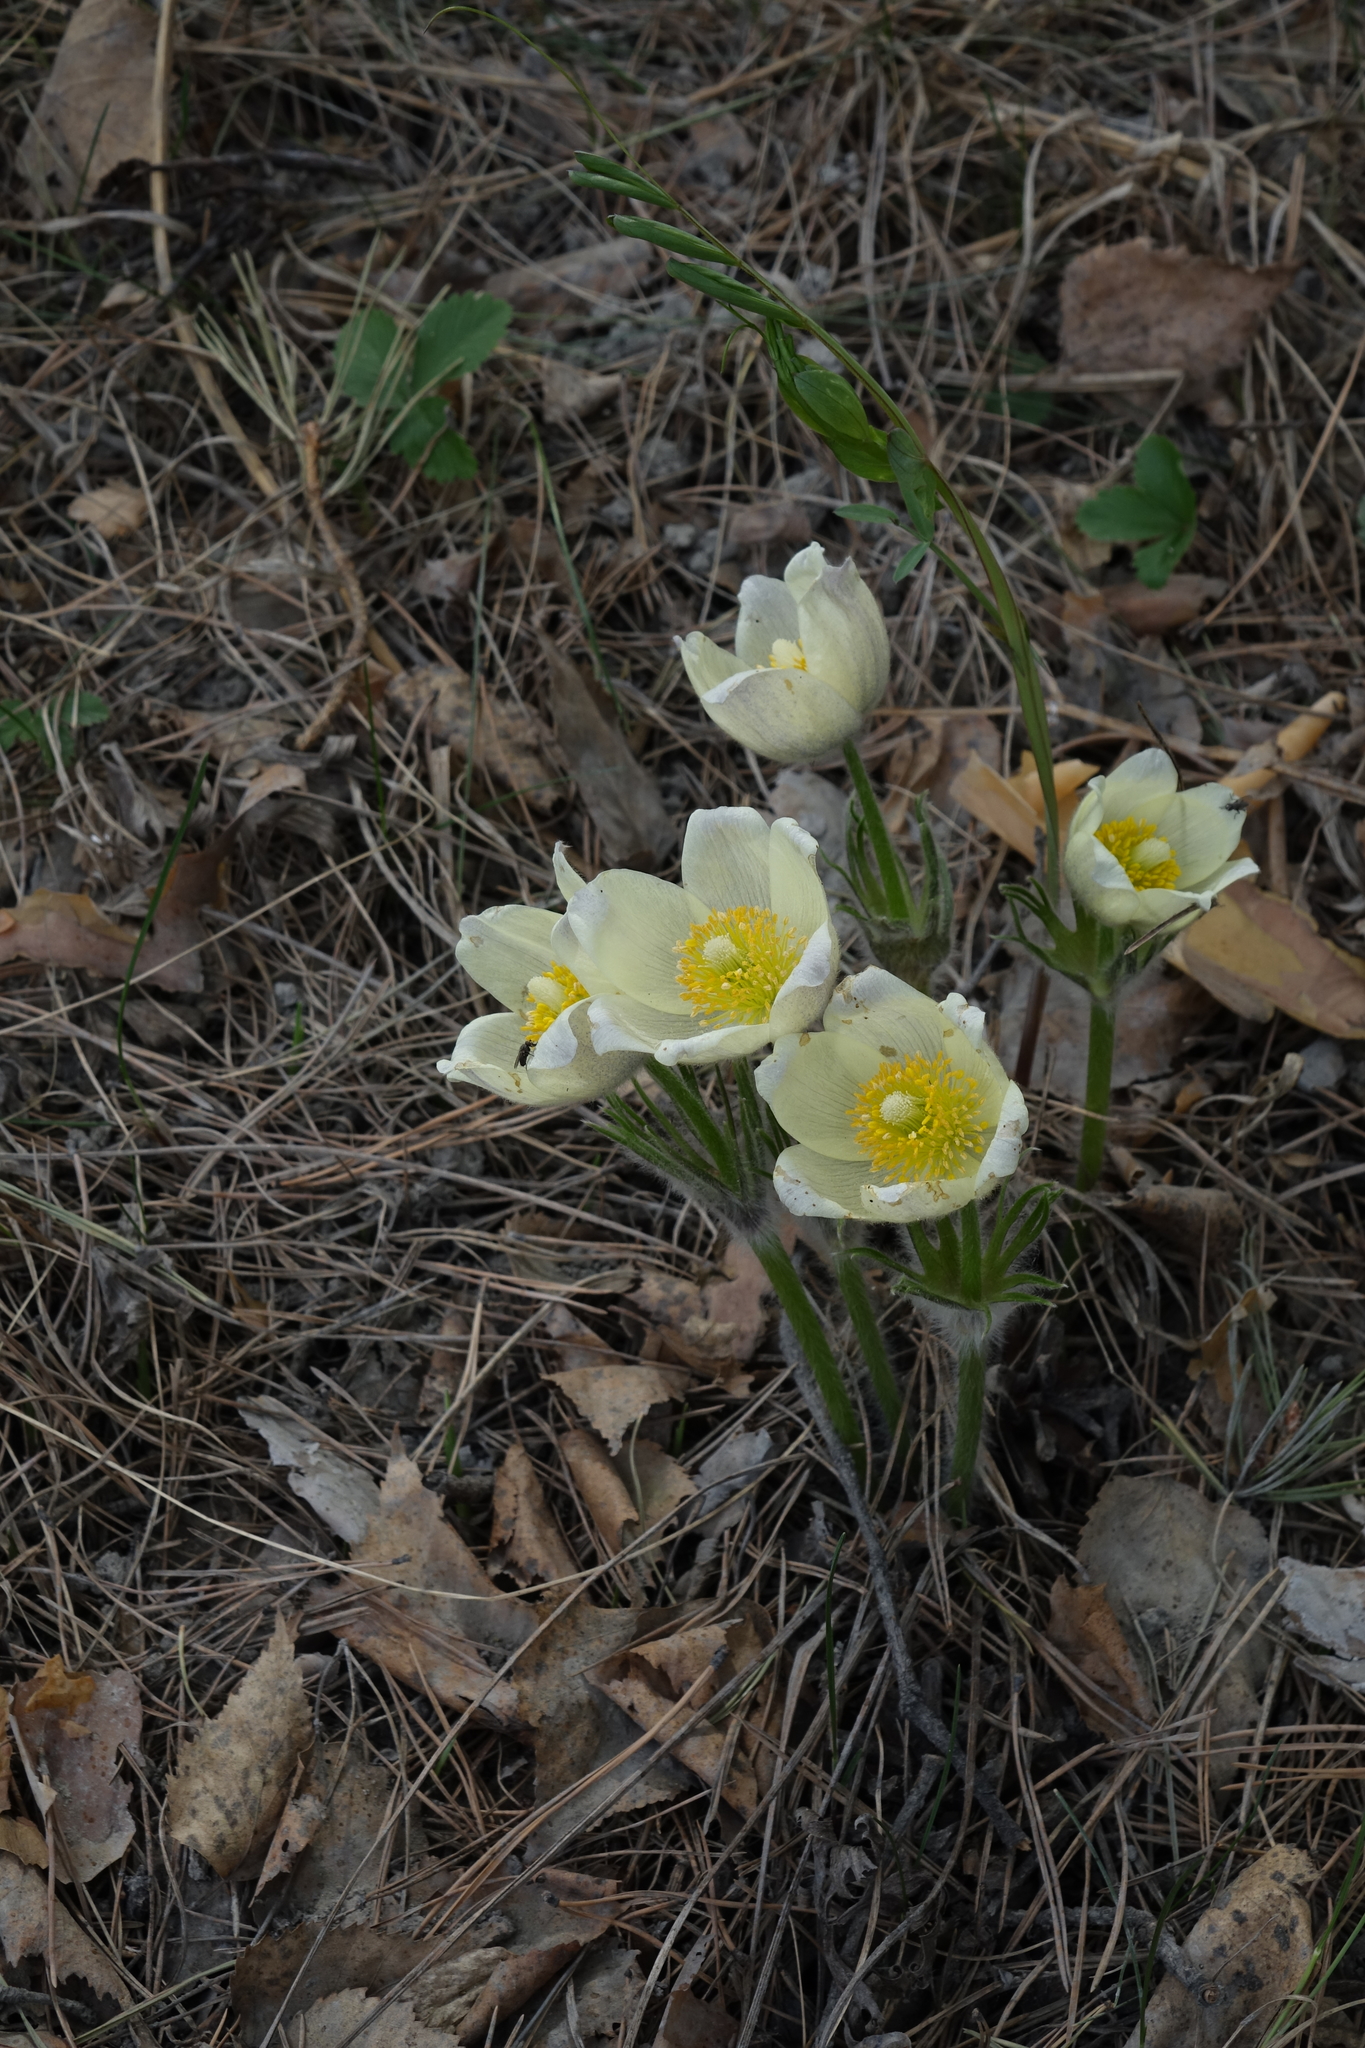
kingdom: Plantae
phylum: Tracheophyta
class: Magnoliopsida
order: Ranunculales
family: Ranunculaceae
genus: Pulsatilla
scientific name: Pulsatilla patens
